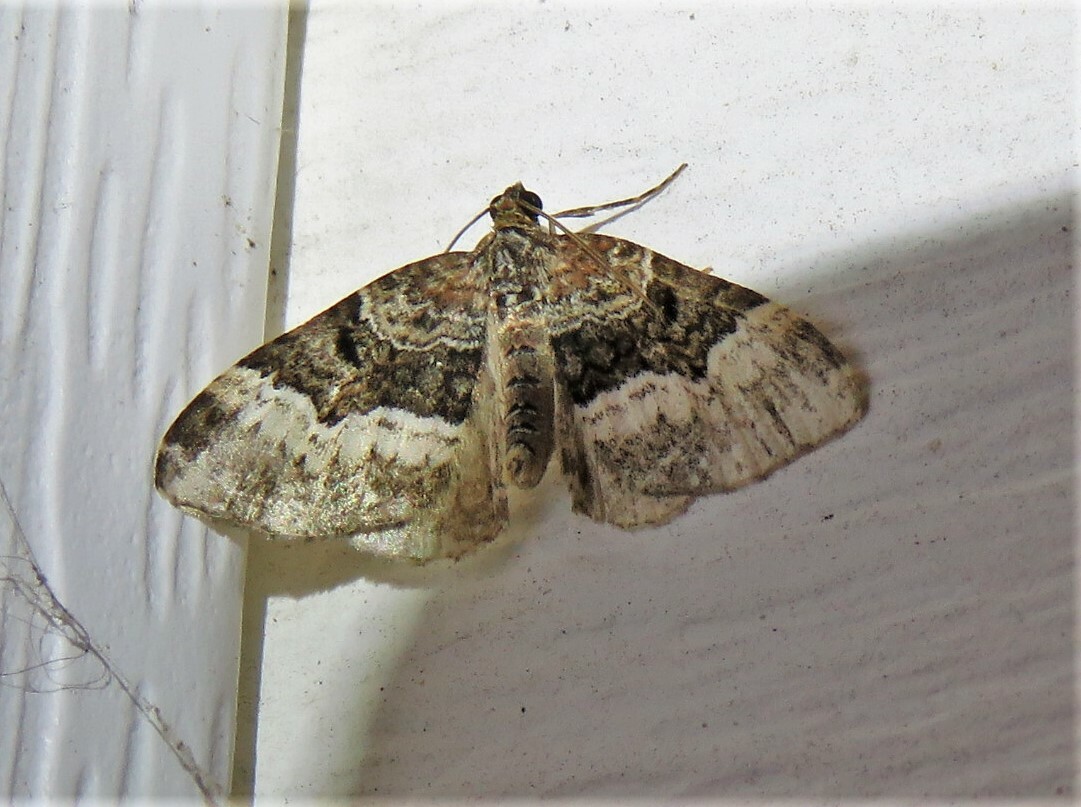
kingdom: Animalia
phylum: Arthropoda
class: Insecta
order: Lepidoptera
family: Geometridae
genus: Euphyia
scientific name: Euphyia intermediata
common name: Sharp-angled carpet
